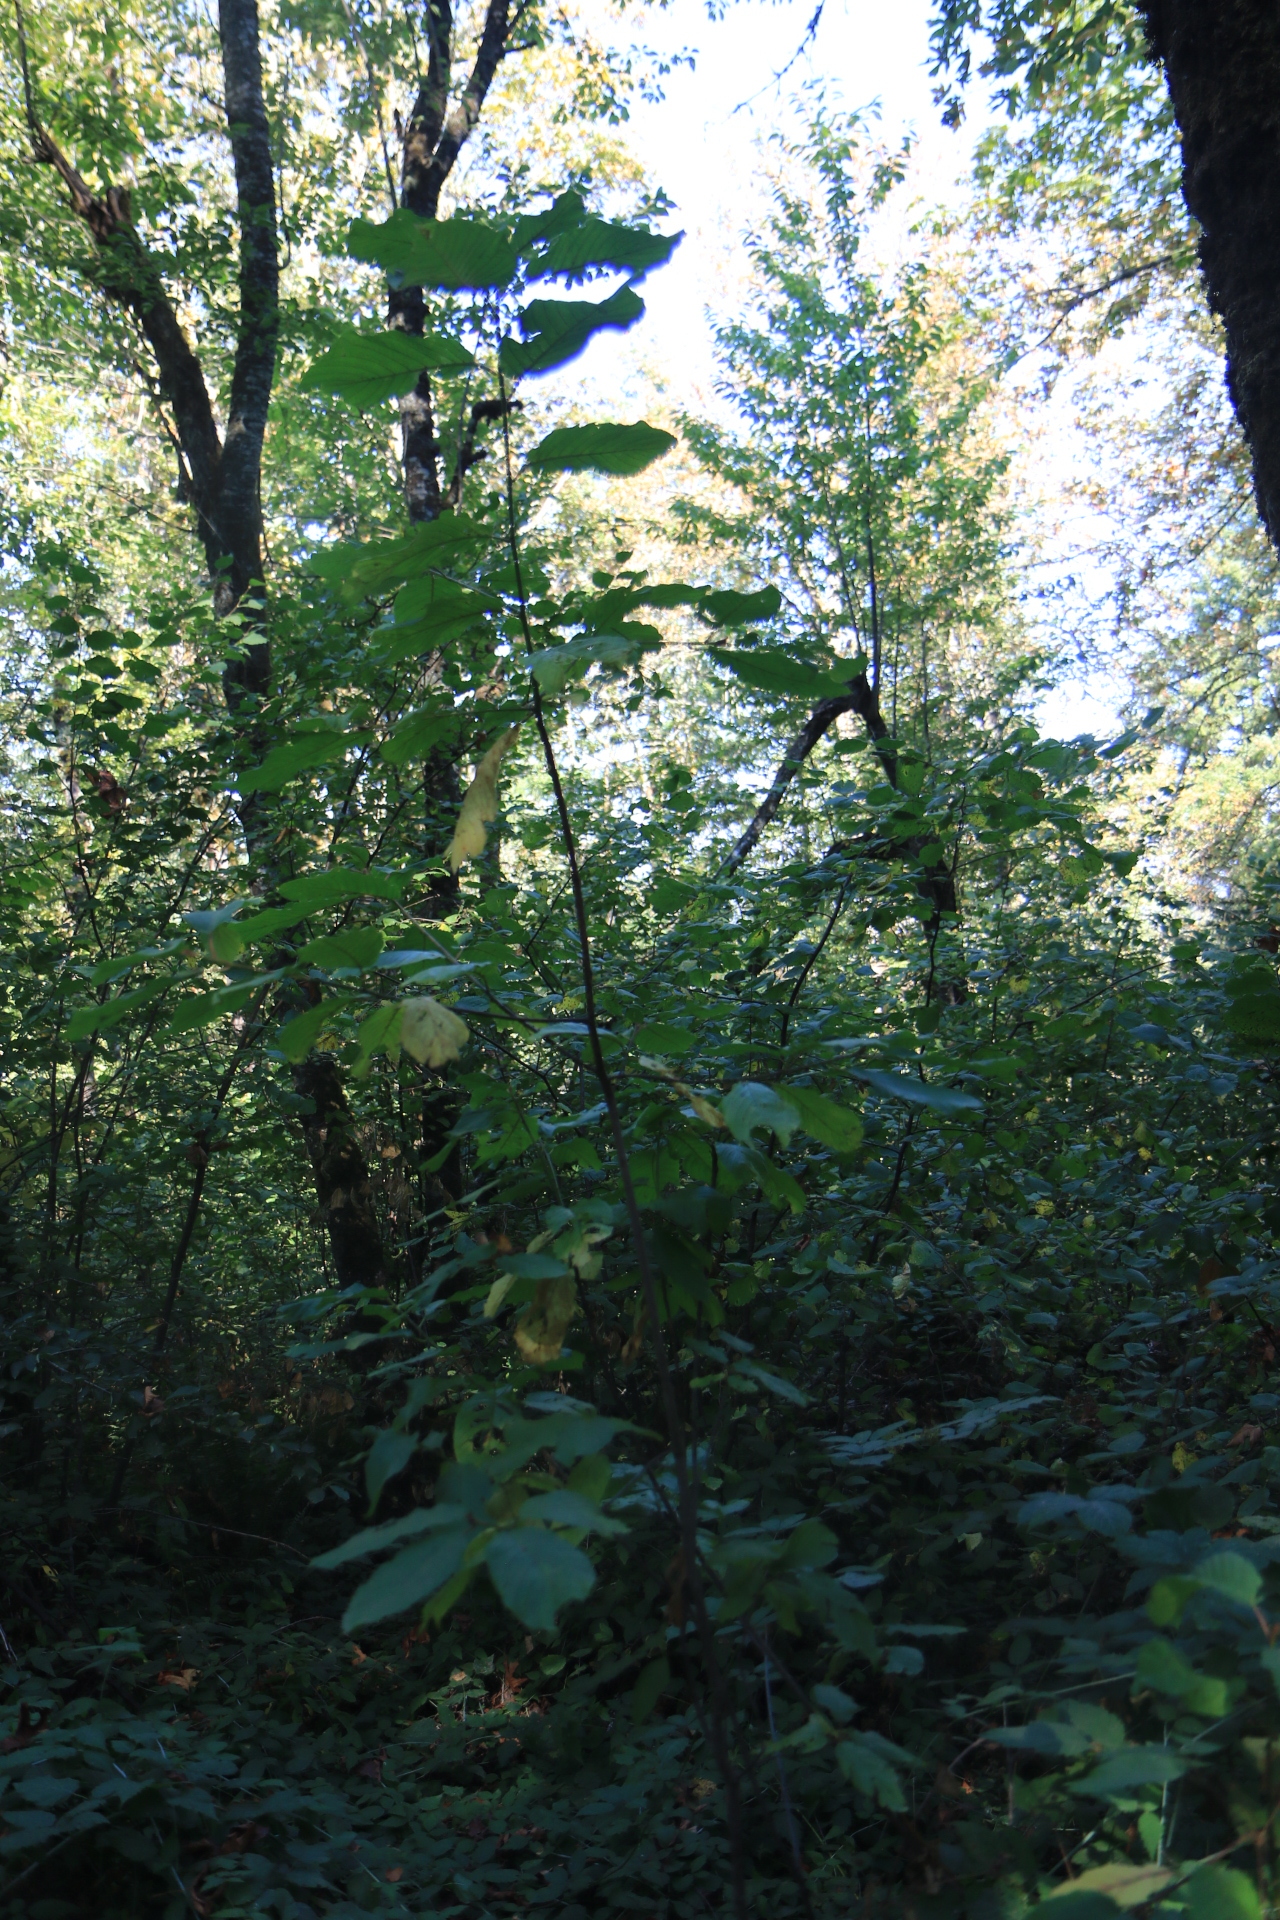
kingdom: Plantae
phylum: Tracheophyta
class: Magnoliopsida
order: Rosales
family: Rhamnaceae
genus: Frangula
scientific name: Frangula purshiana
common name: Cascara buckthorn
